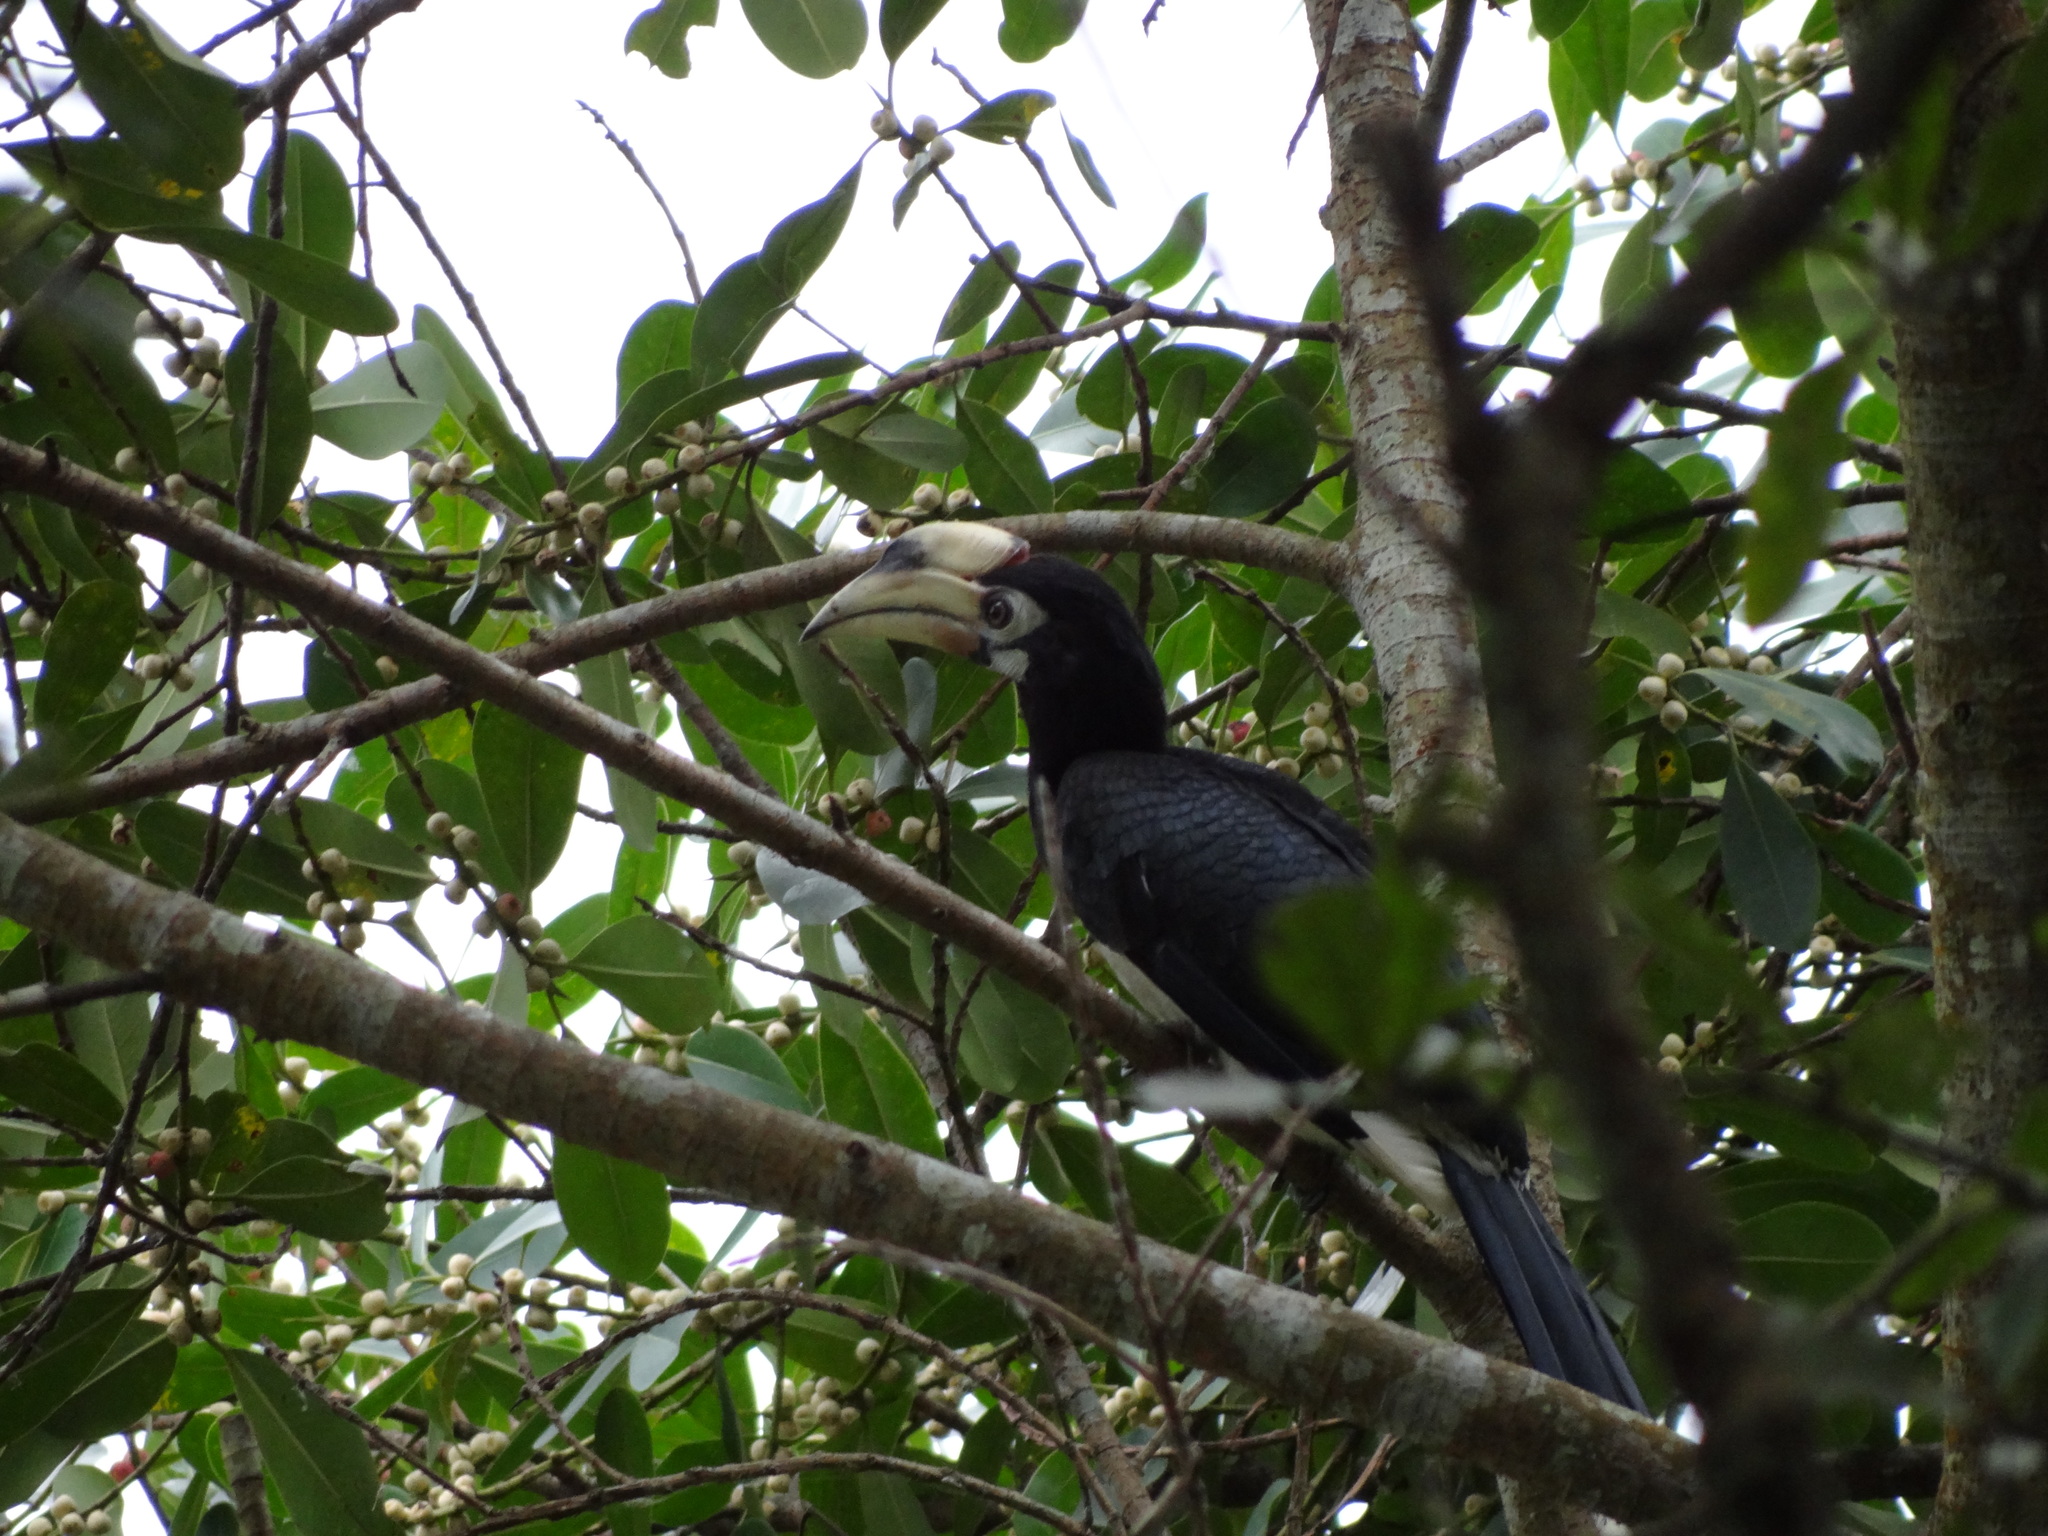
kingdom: Animalia
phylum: Chordata
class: Aves
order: Bucerotiformes
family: Bucerotidae
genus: Anthracoceros
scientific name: Anthracoceros albirostris
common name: Oriental pied-hornbill
